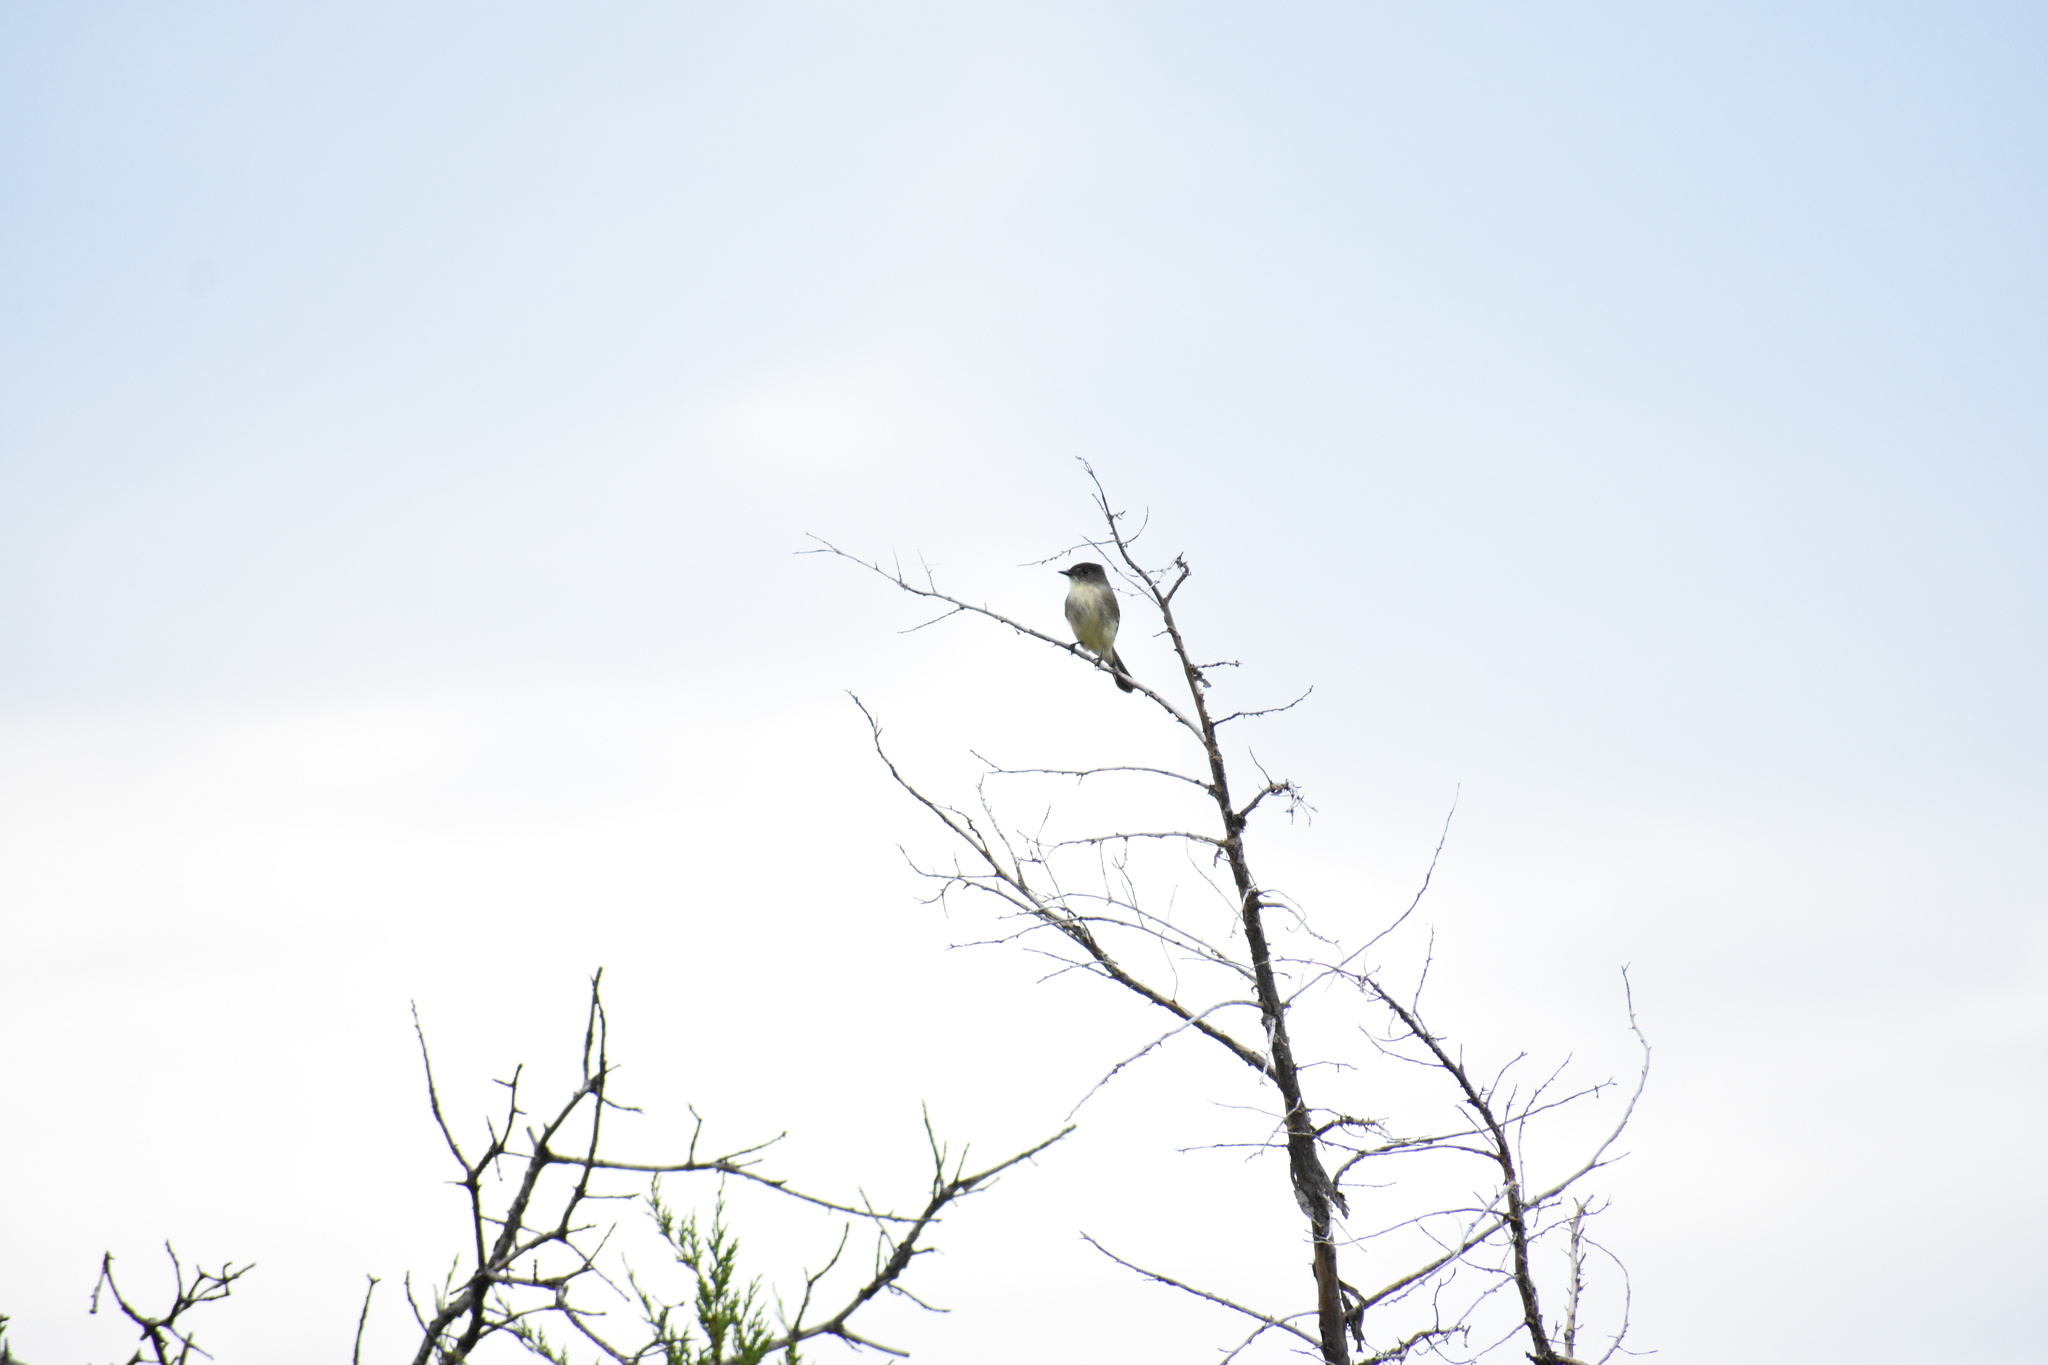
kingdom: Animalia
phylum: Chordata
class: Aves
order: Passeriformes
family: Tyrannidae
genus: Sayornis
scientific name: Sayornis phoebe
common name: Eastern phoebe
